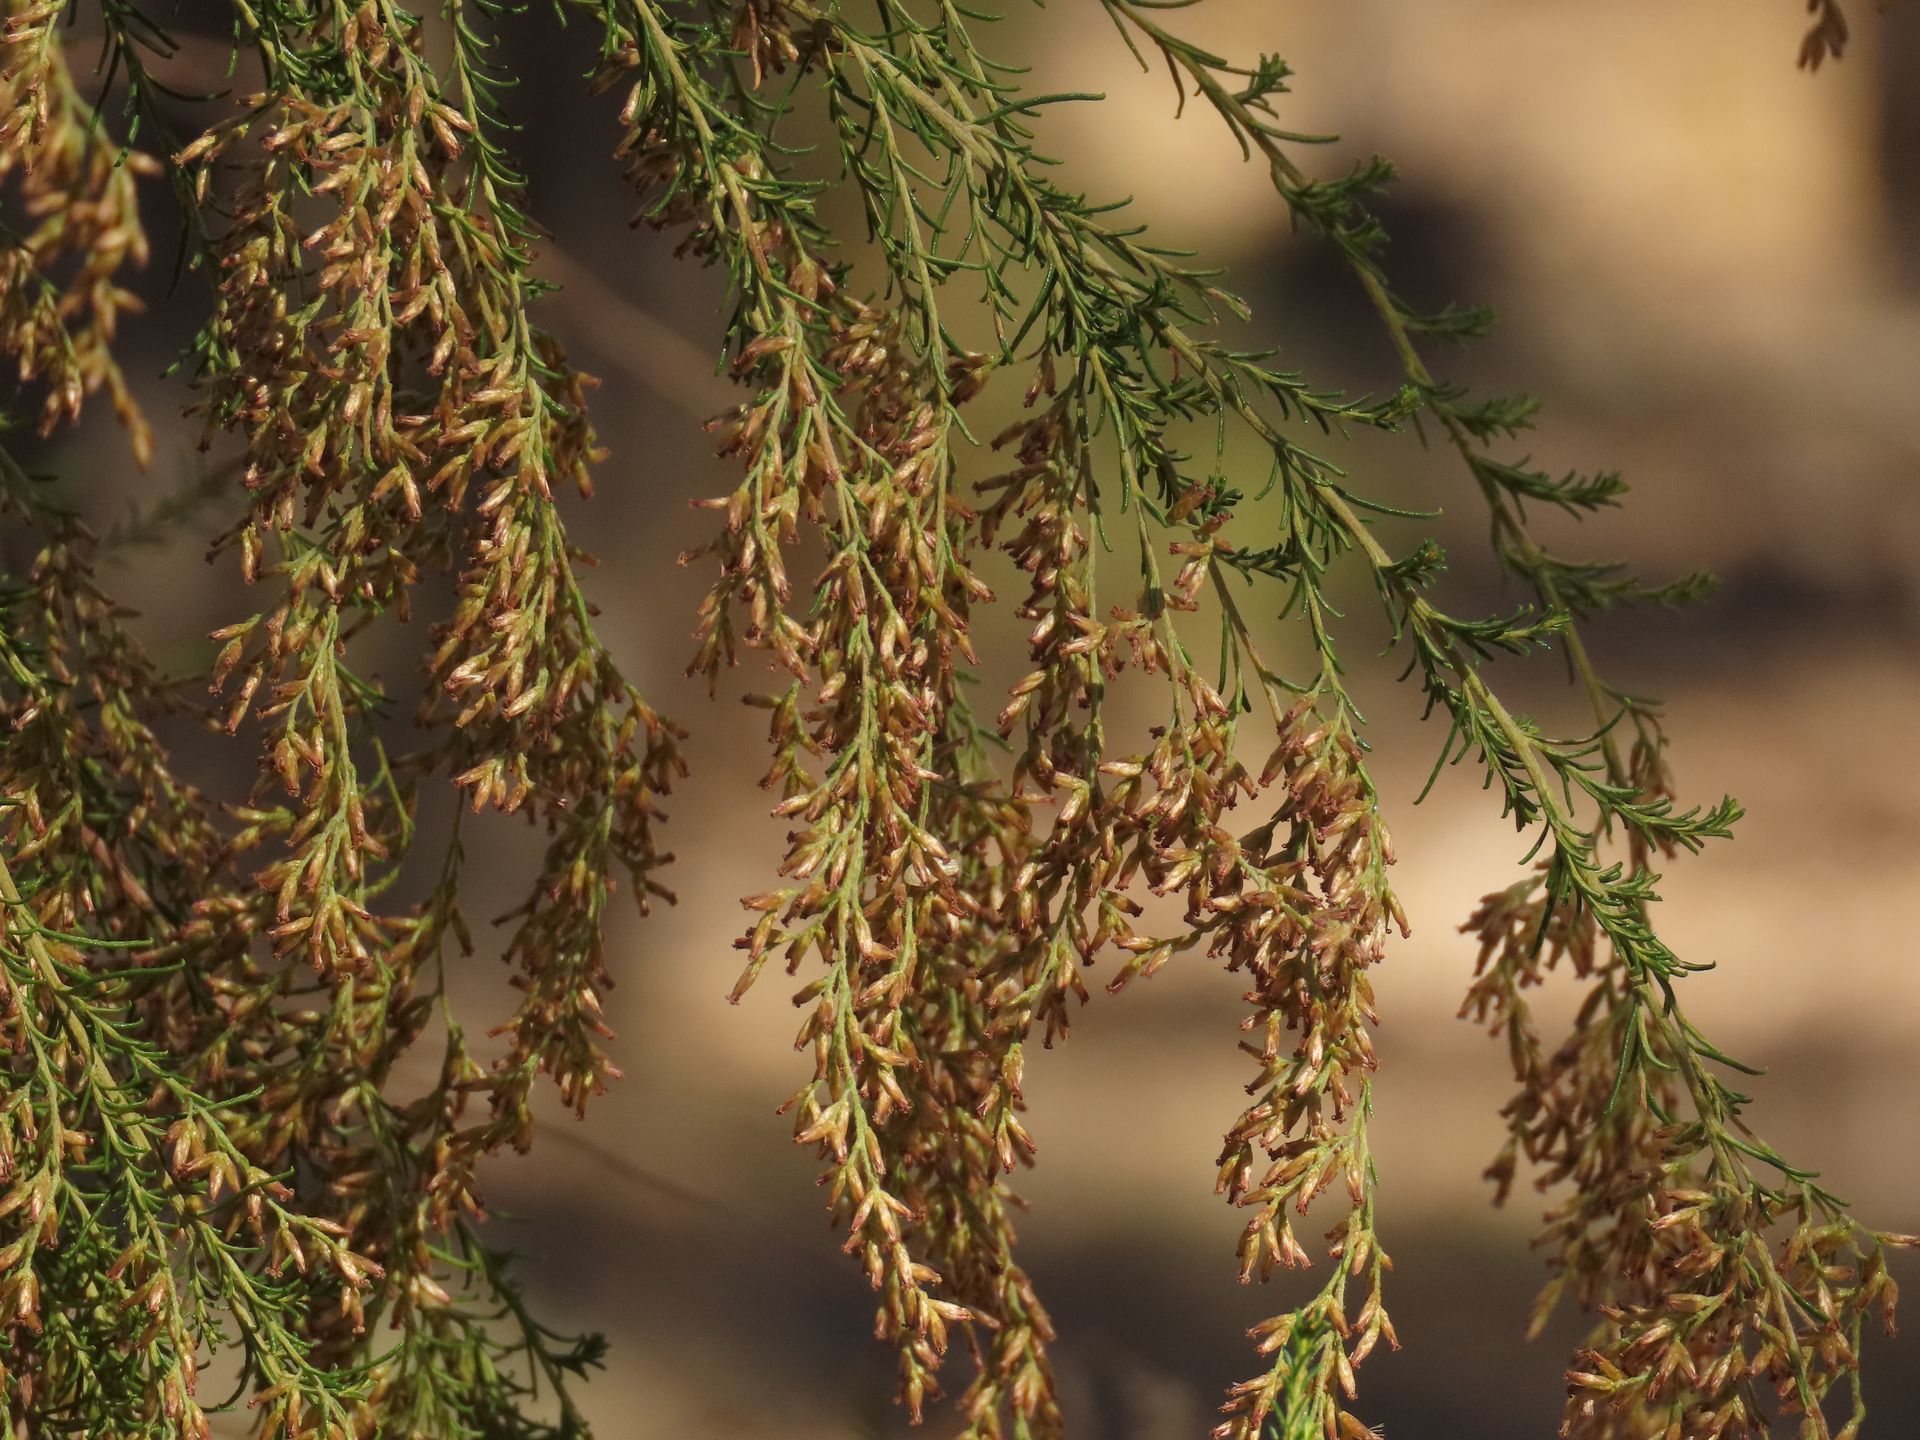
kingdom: Plantae
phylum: Tracheophyta
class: Magnoliopsida
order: Asterales
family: Asteraceae
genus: Cassinia
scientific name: Cassinia sifton
